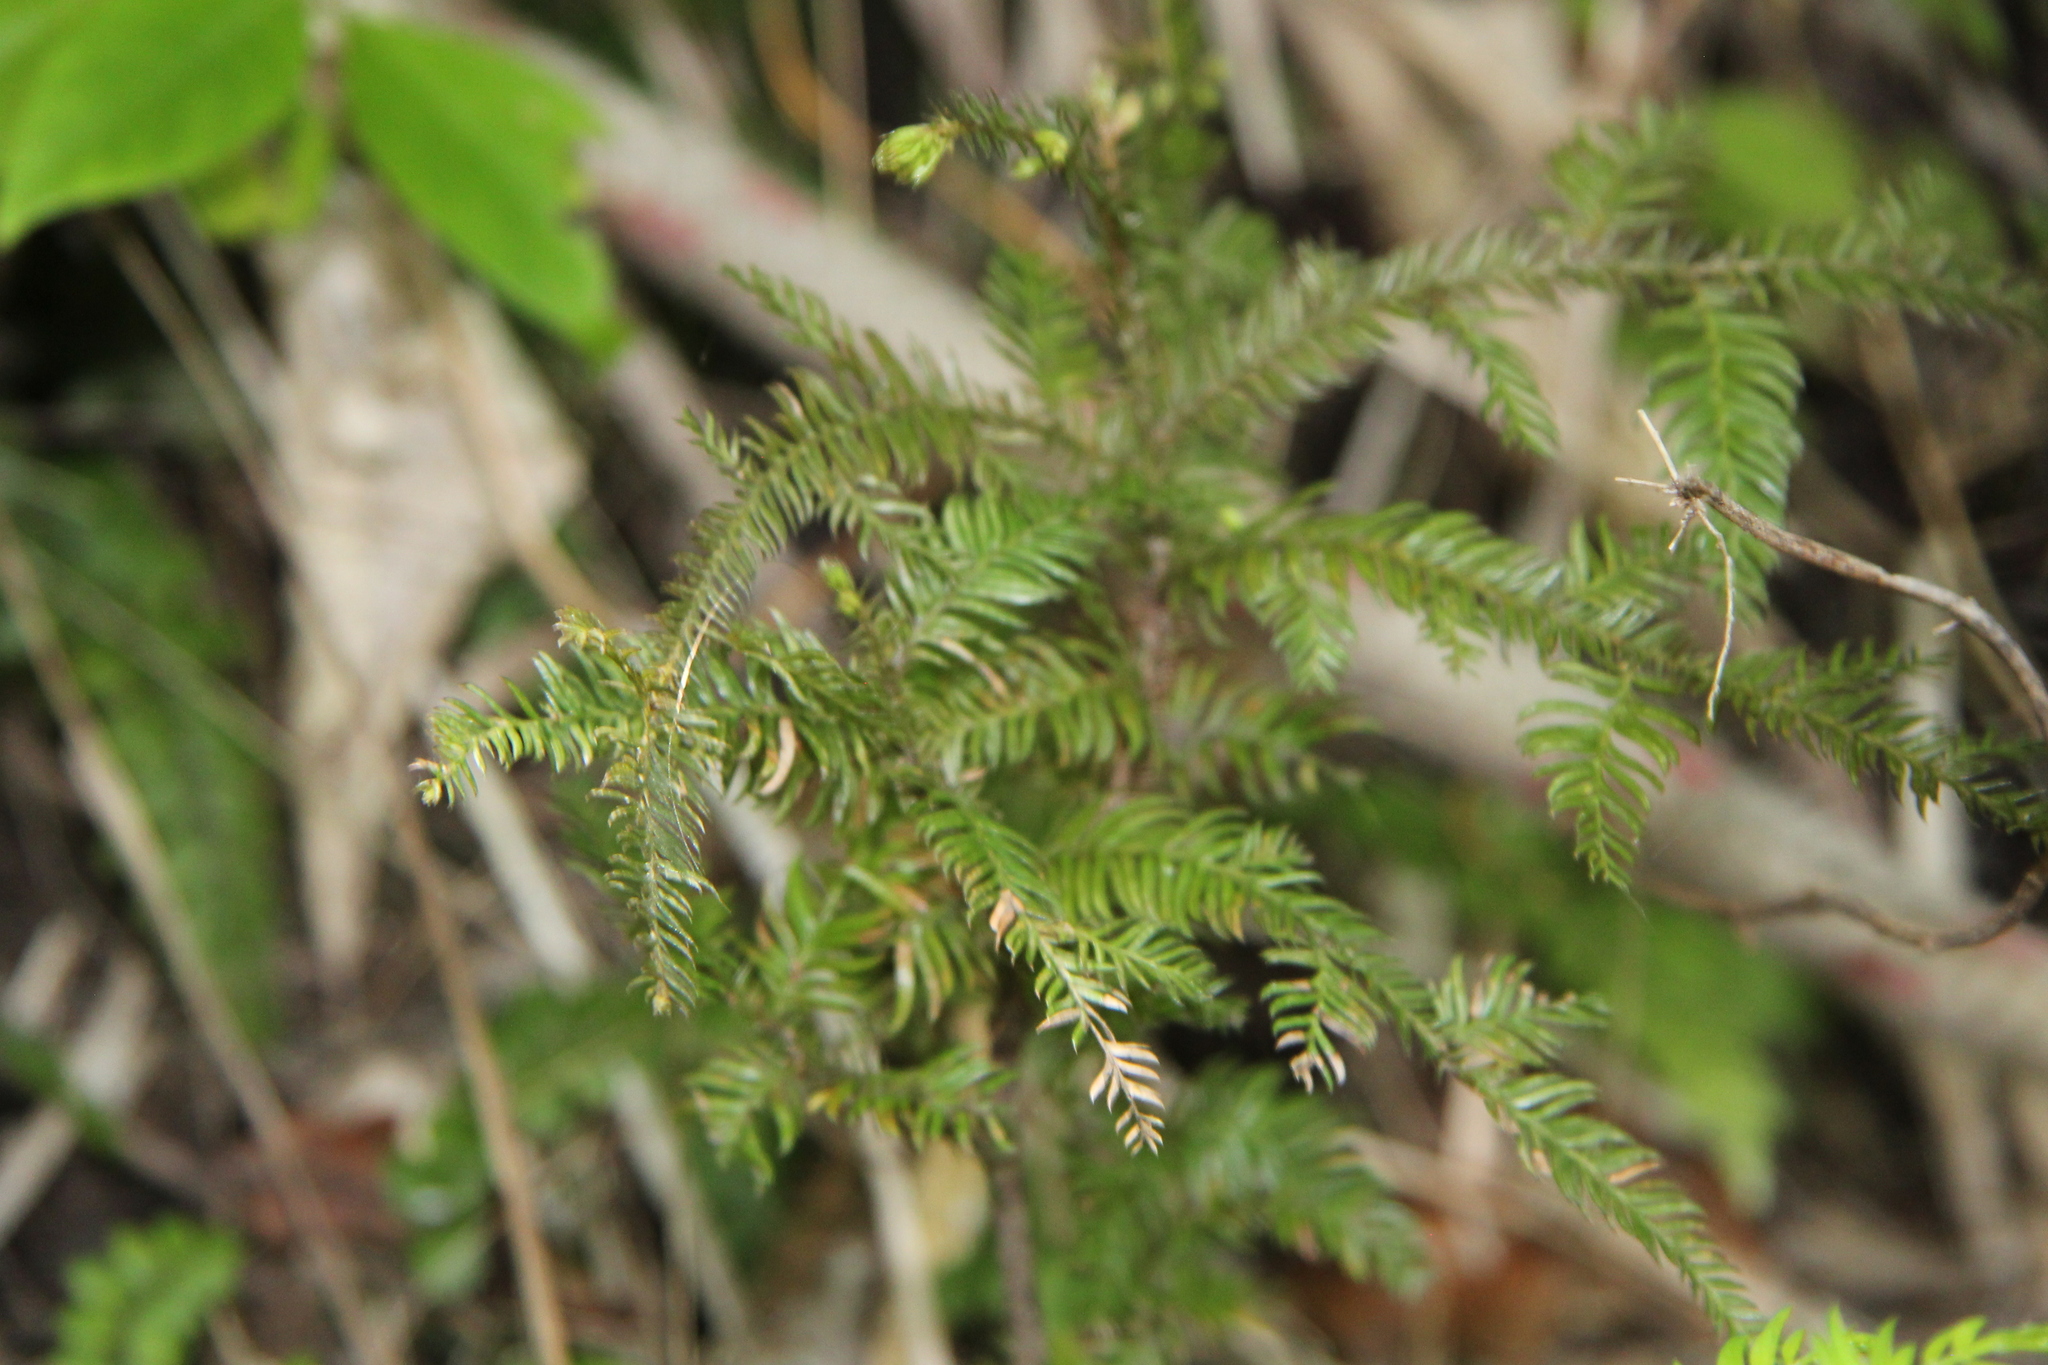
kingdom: Plantae
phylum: Tracheophyta
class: Pinopsida
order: Pinales
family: Podocarpaceae
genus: Dacrycarpus
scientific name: Dacrycarpus dacrydioides
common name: White pine
